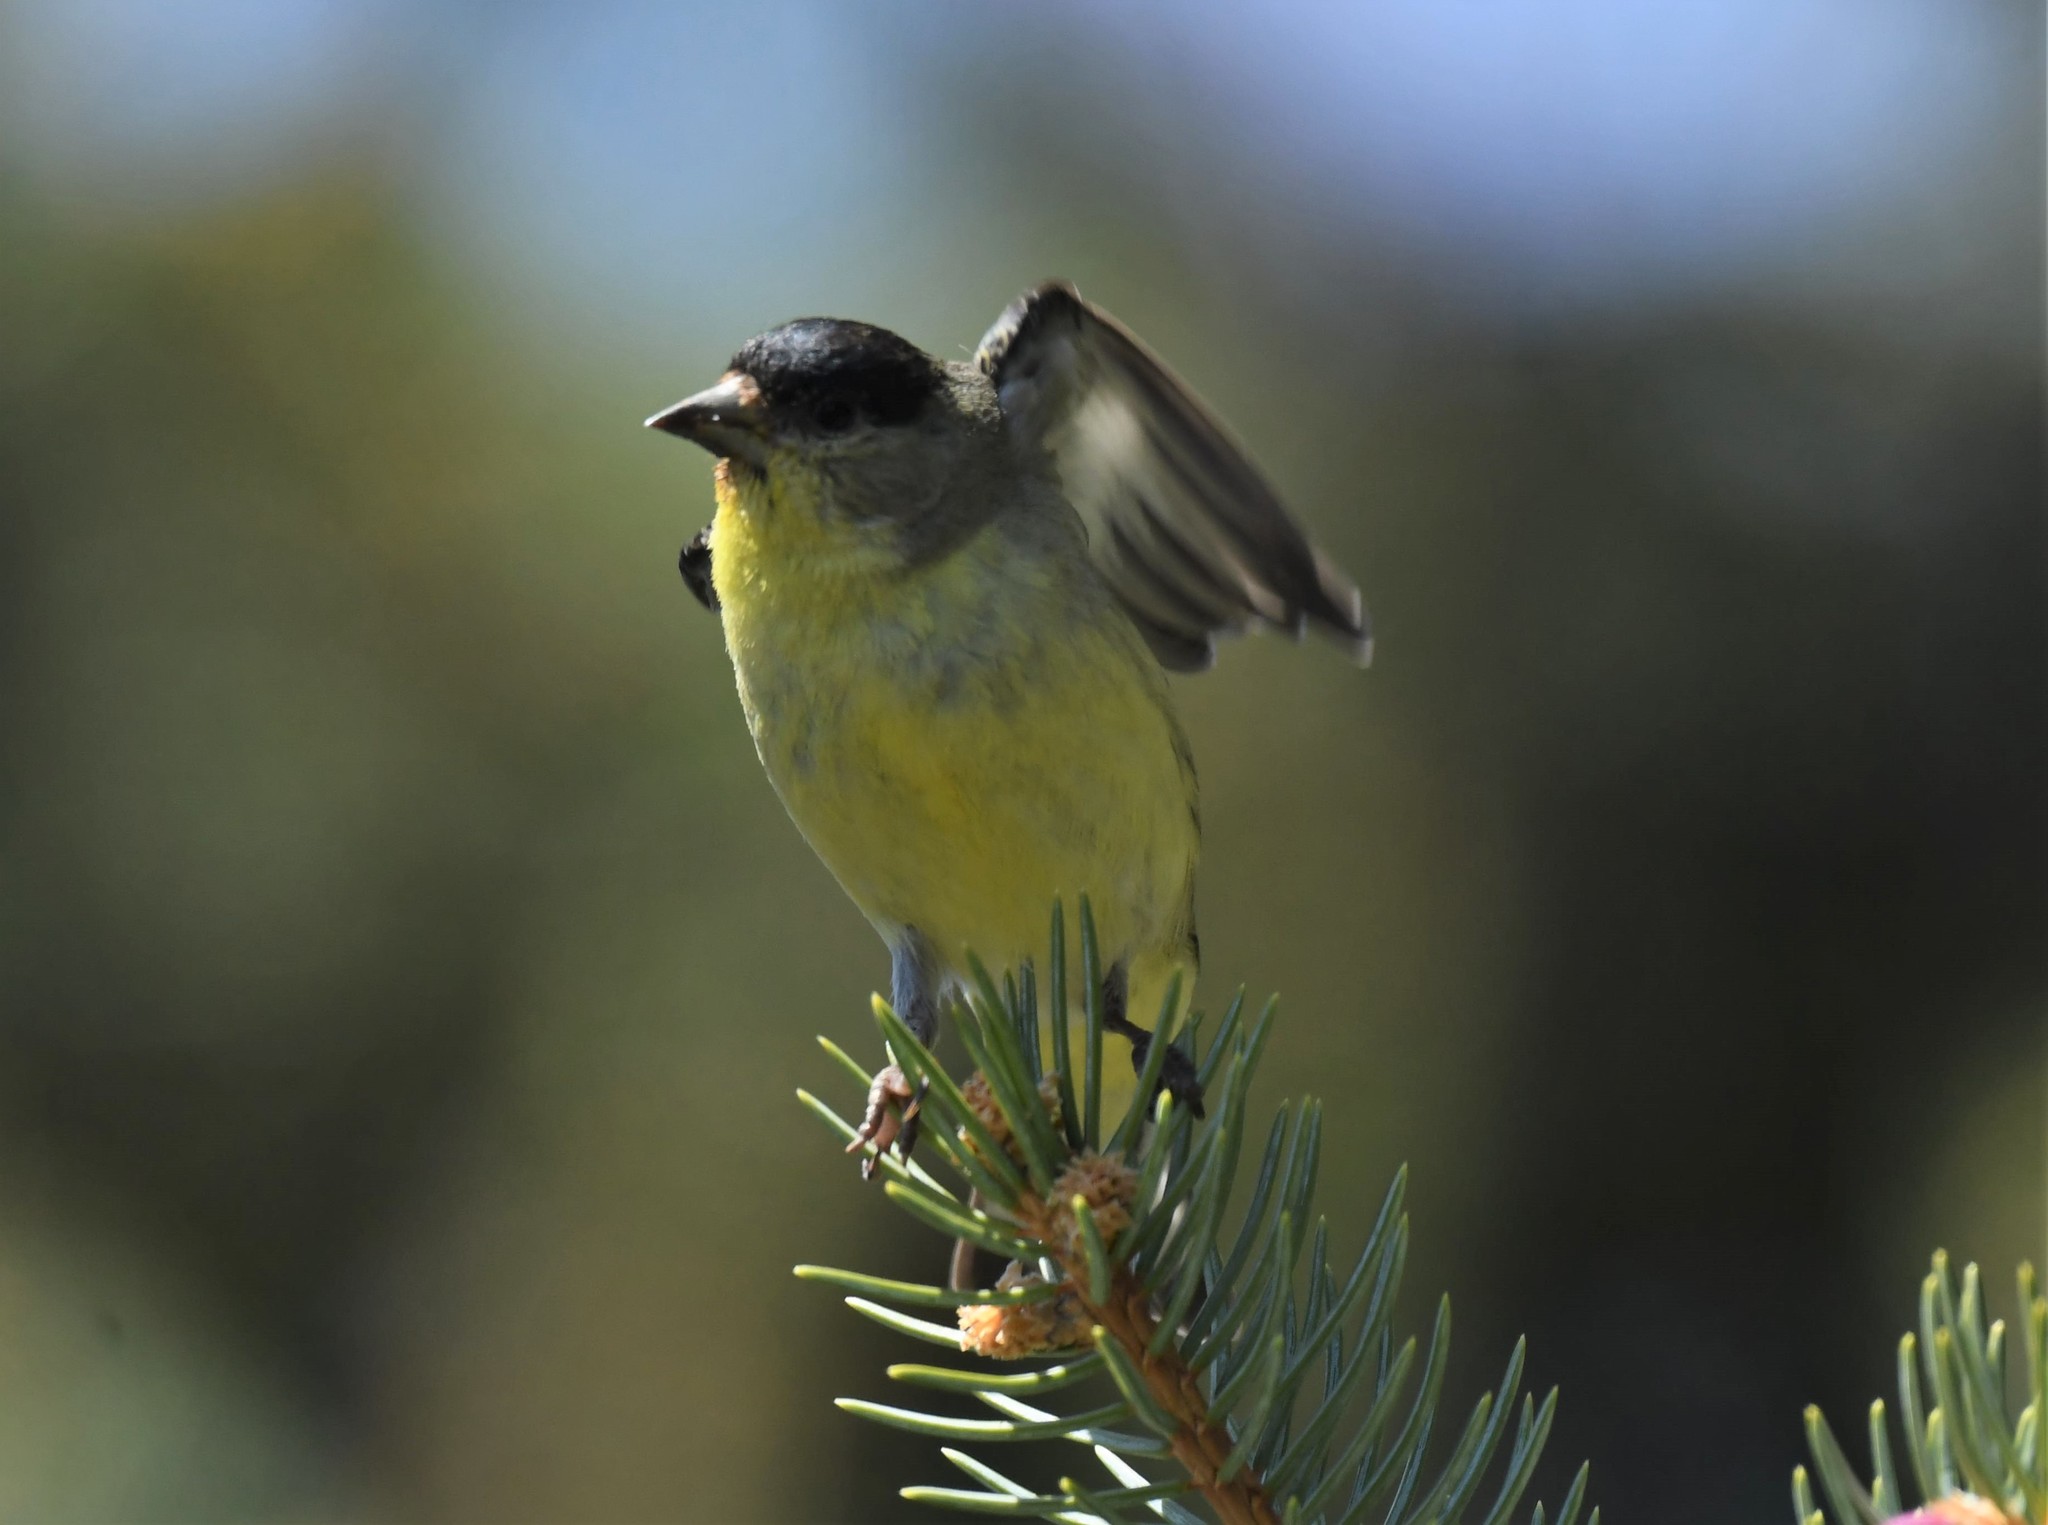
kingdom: Animalia
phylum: Chordata
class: Aves
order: Passeriformes
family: Fringillidae
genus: Spinus
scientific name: Spinus psaltria
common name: Lesser goldfinch
